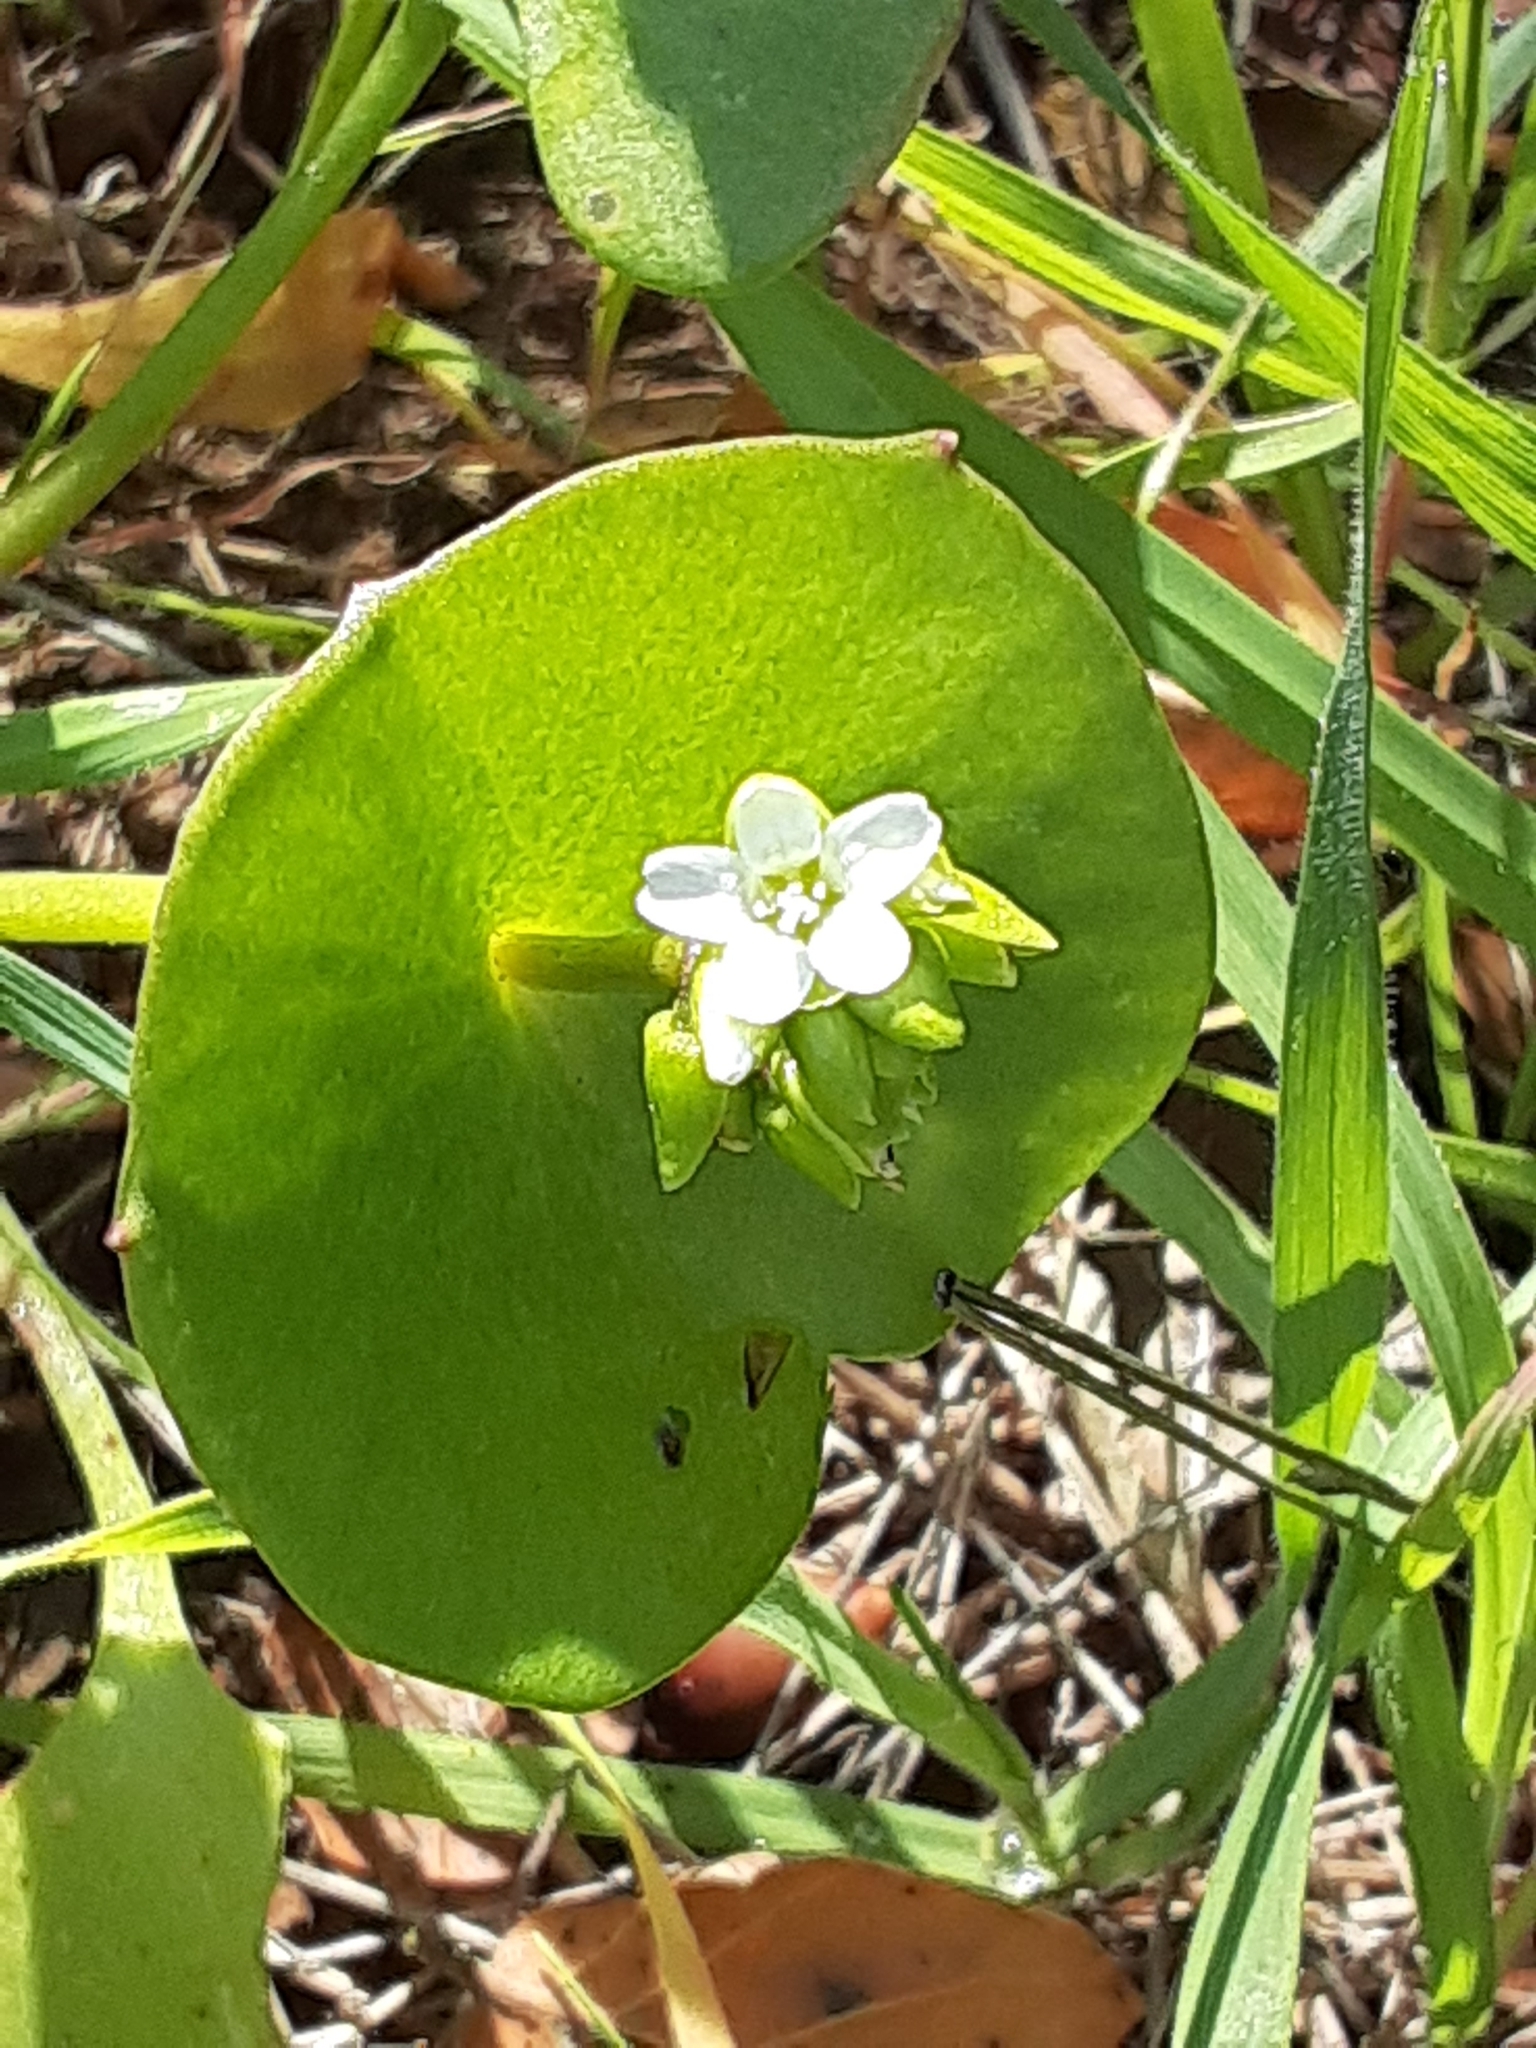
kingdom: Plantae
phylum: Tracheophyta
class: Magnoliopsida
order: Caryophyllales
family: Montiaceae
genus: Claytonia
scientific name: Claytonia perfoliata
